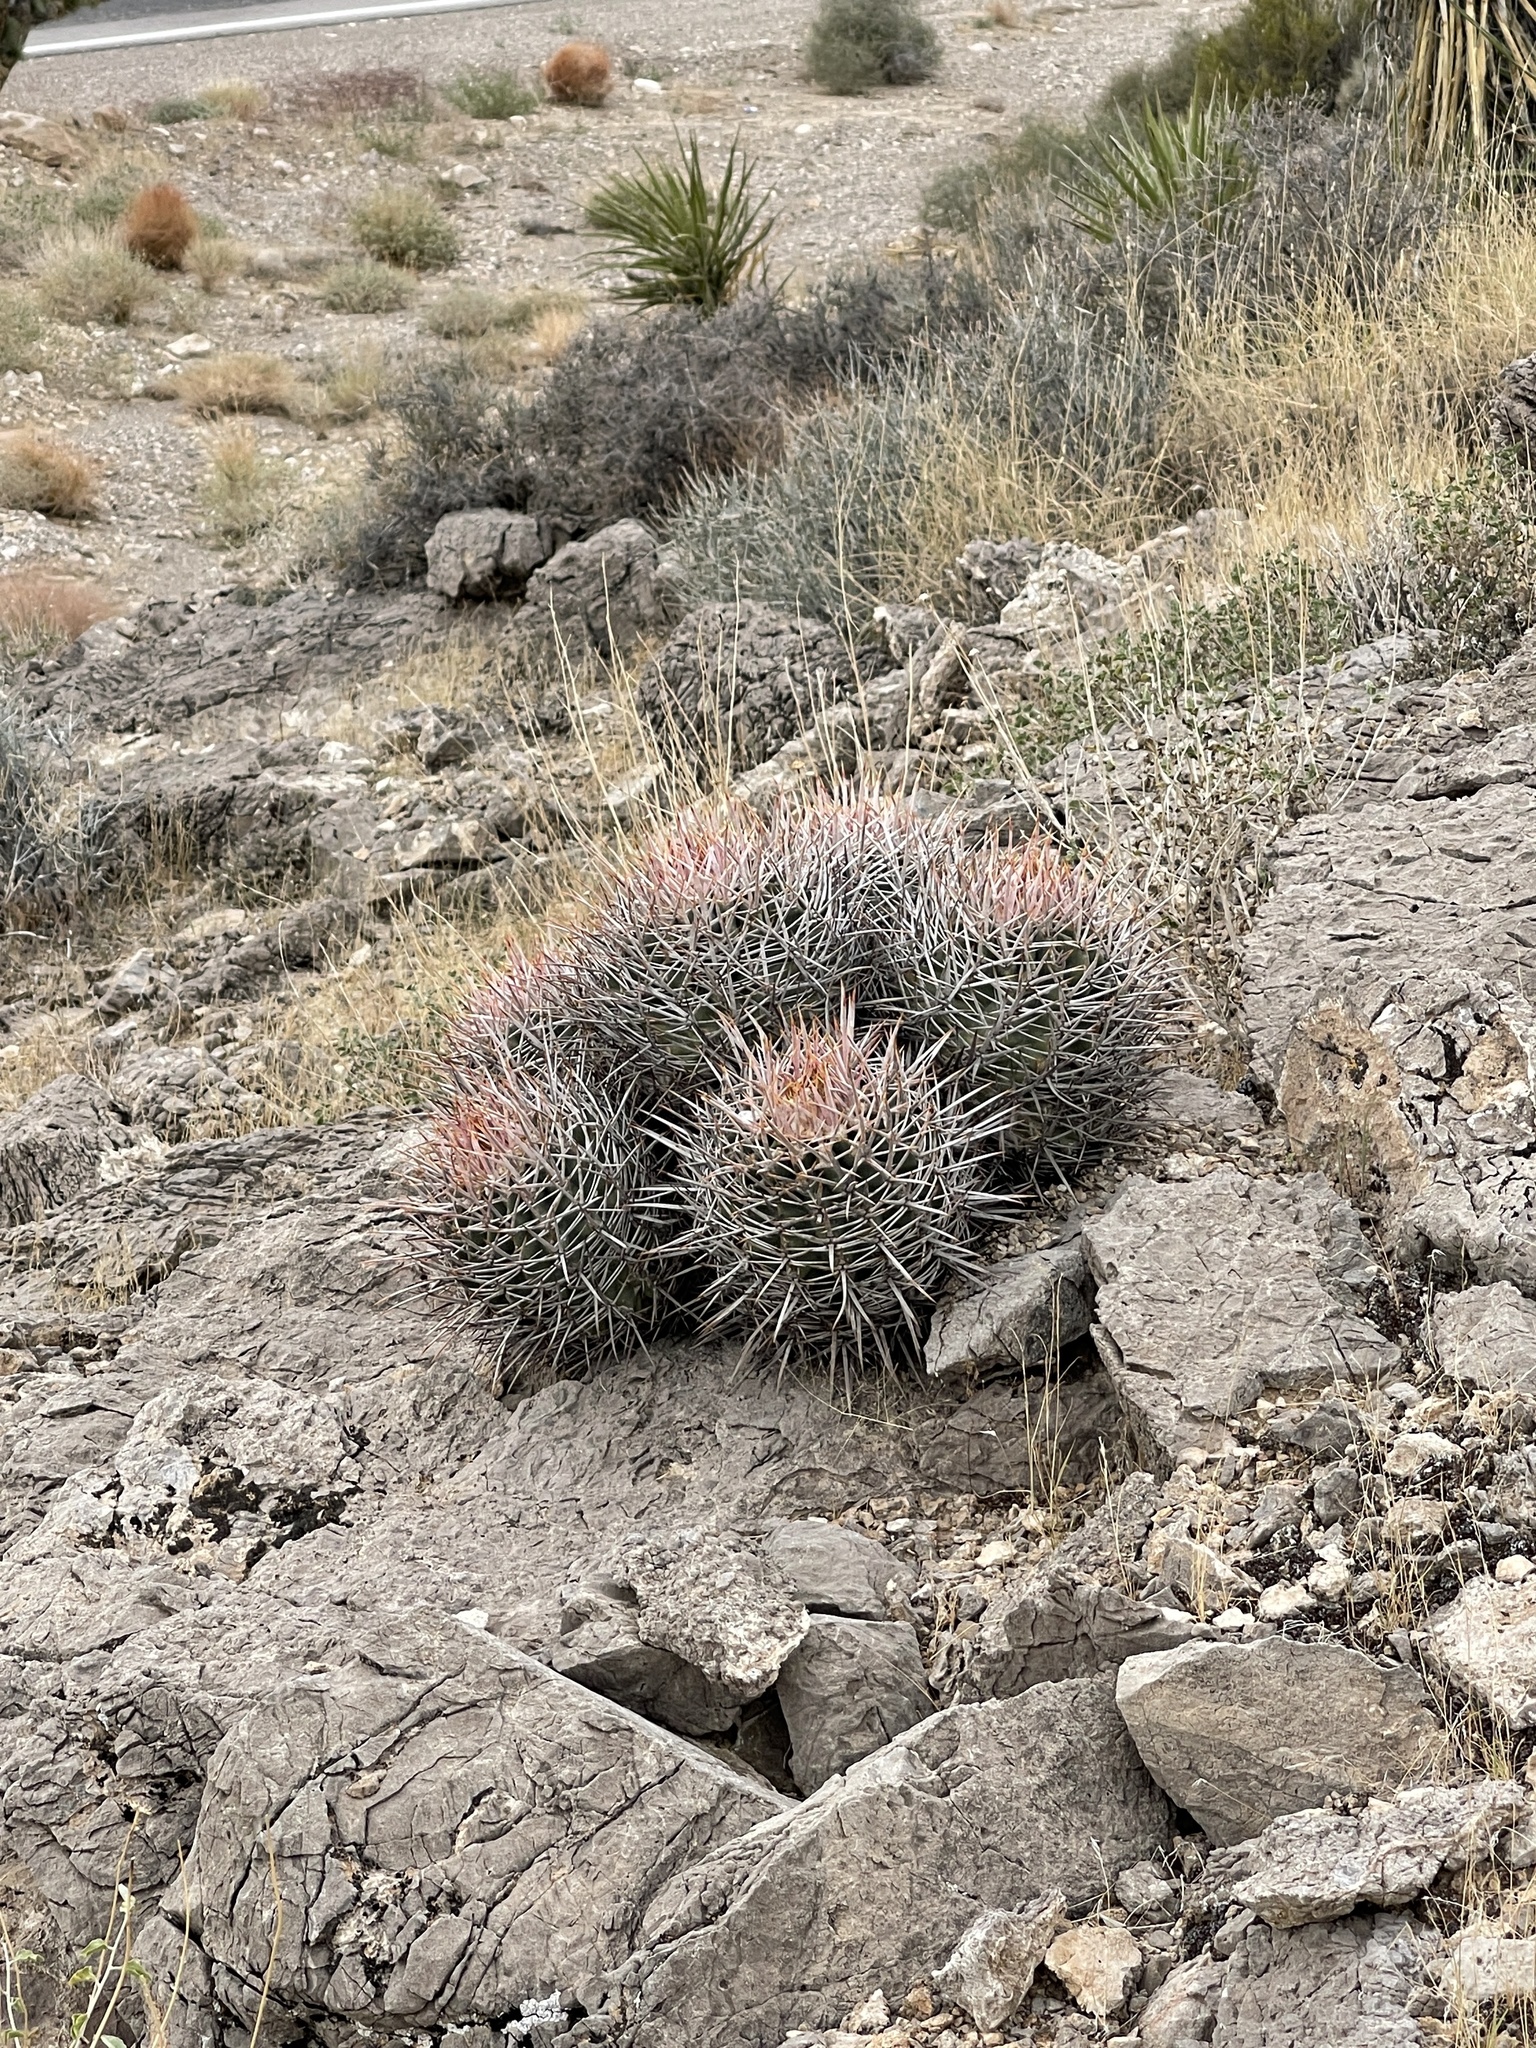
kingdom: Plantae
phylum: Tracheophyta
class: Magnoliopsida
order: Caryophyllales
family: Cactaceae
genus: Echinocactus
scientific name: Echinocactus polycephalus
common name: Cottontop cactus
